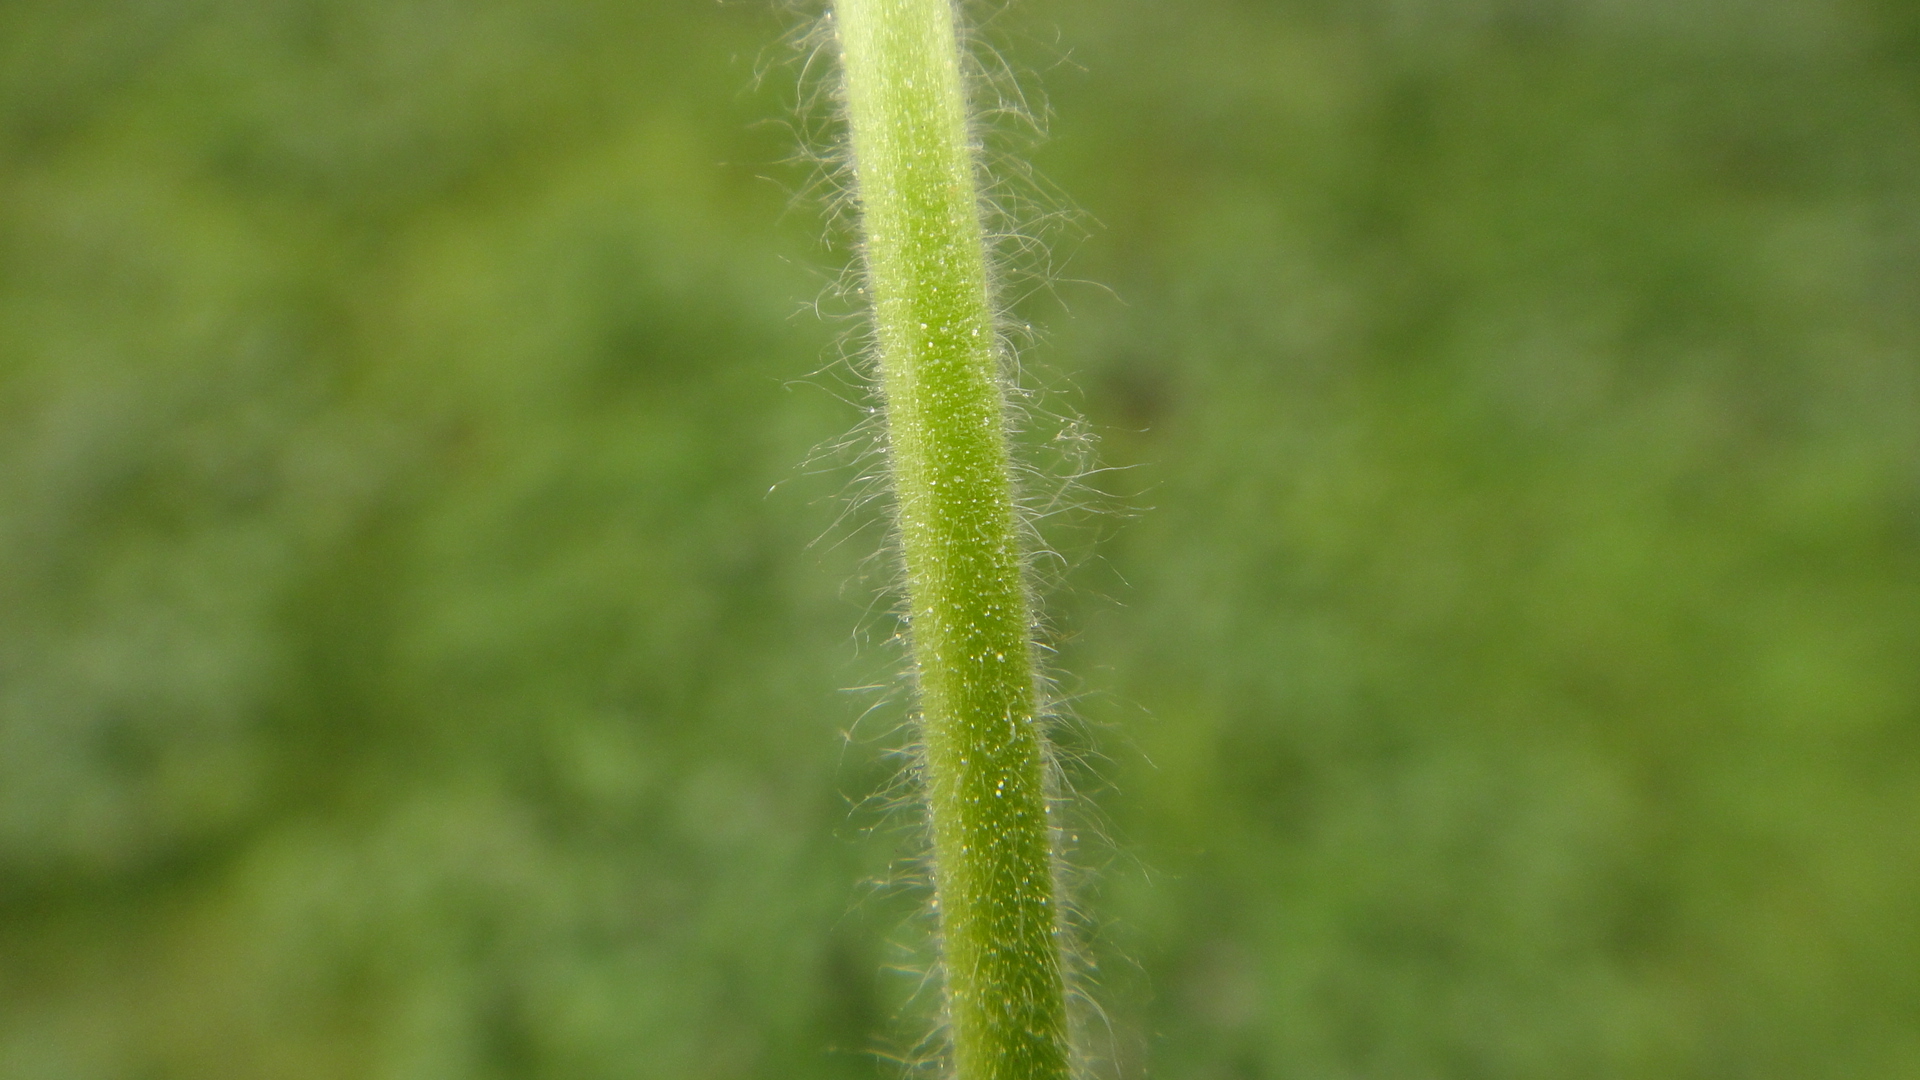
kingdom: Plantae
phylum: Tracheophyta
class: Magnoliopsida
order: Geraniales
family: Geraniaceae
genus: Geranium
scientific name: Geranium molle
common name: Dove's-foot crane's-bill
